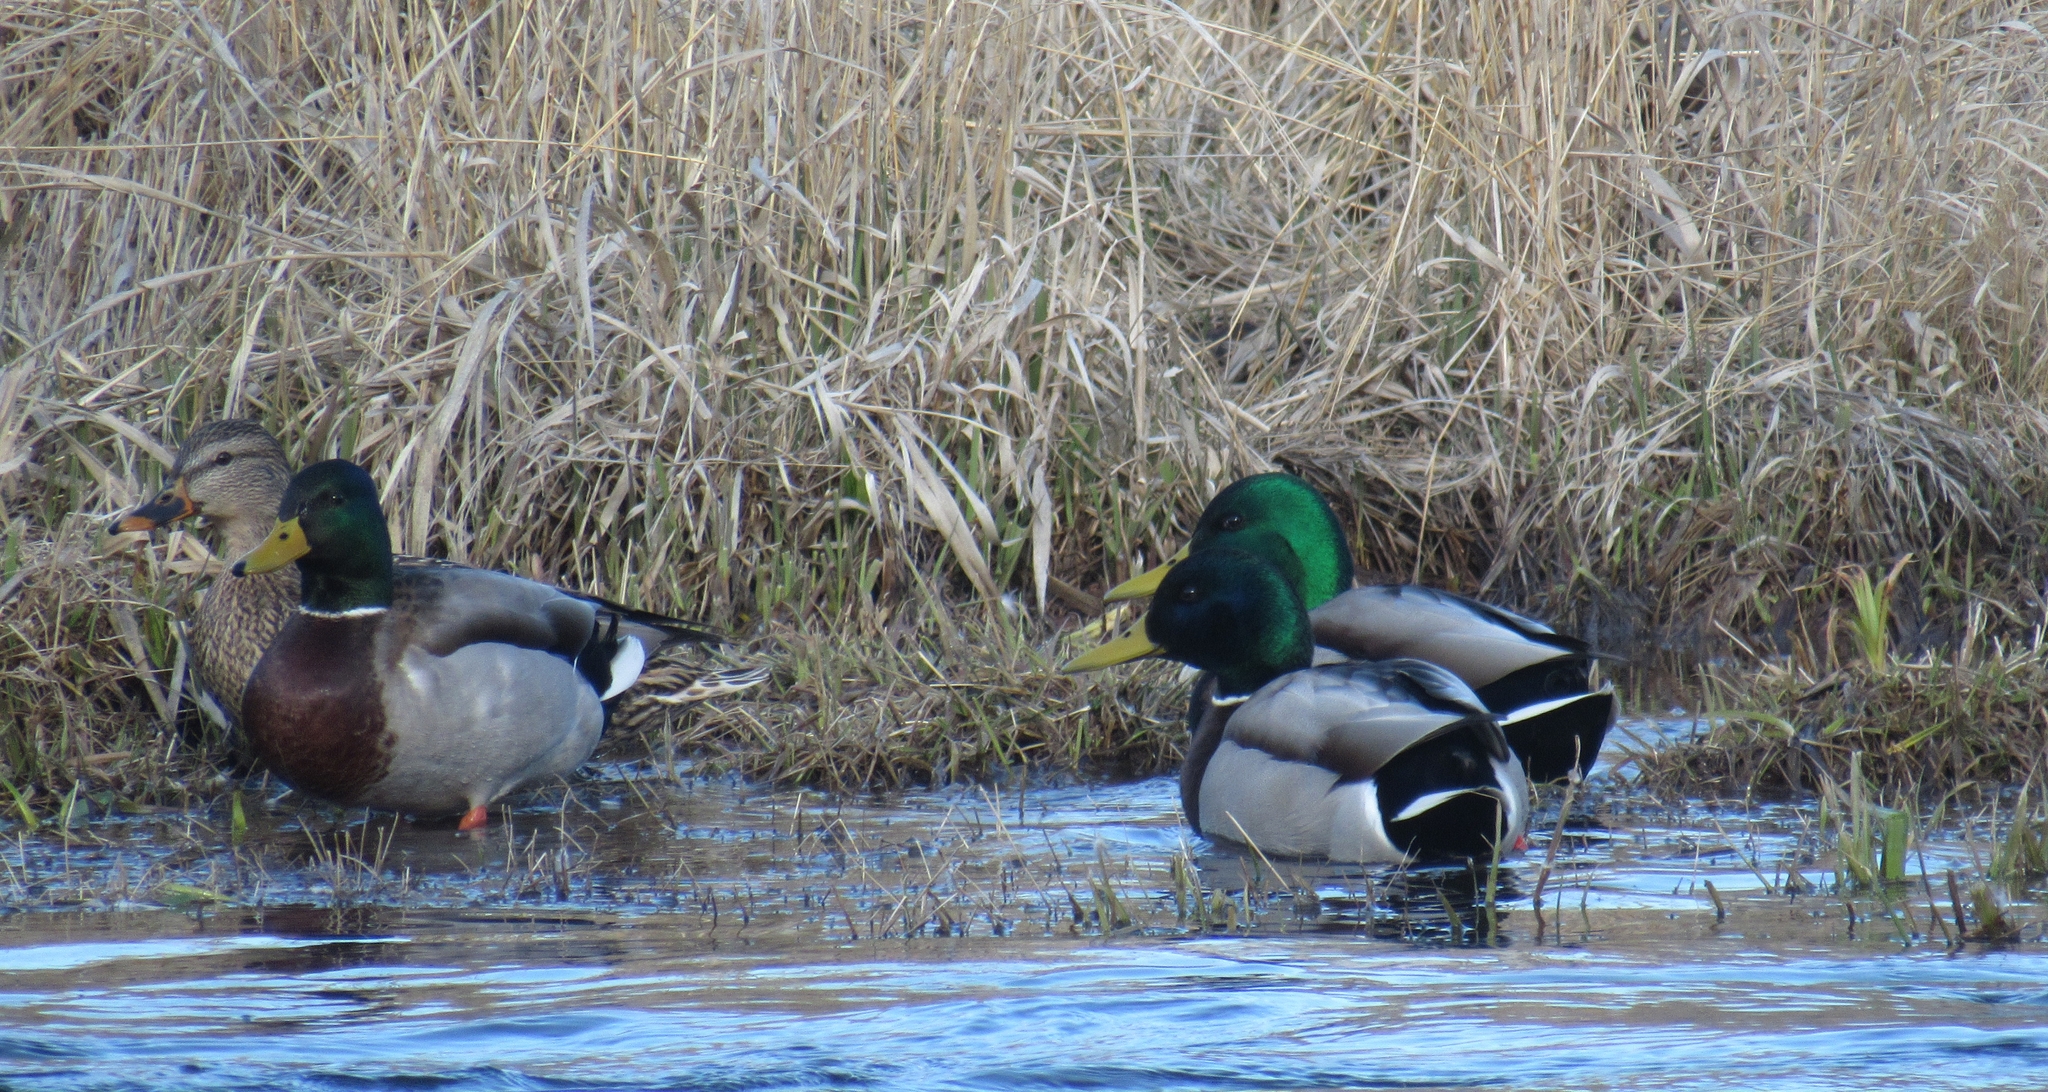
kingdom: Animalia
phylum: Chordata
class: Aves
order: Anseriformes
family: Anatidae
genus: Anas
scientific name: Anas platyrhynchos
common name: Mallard
